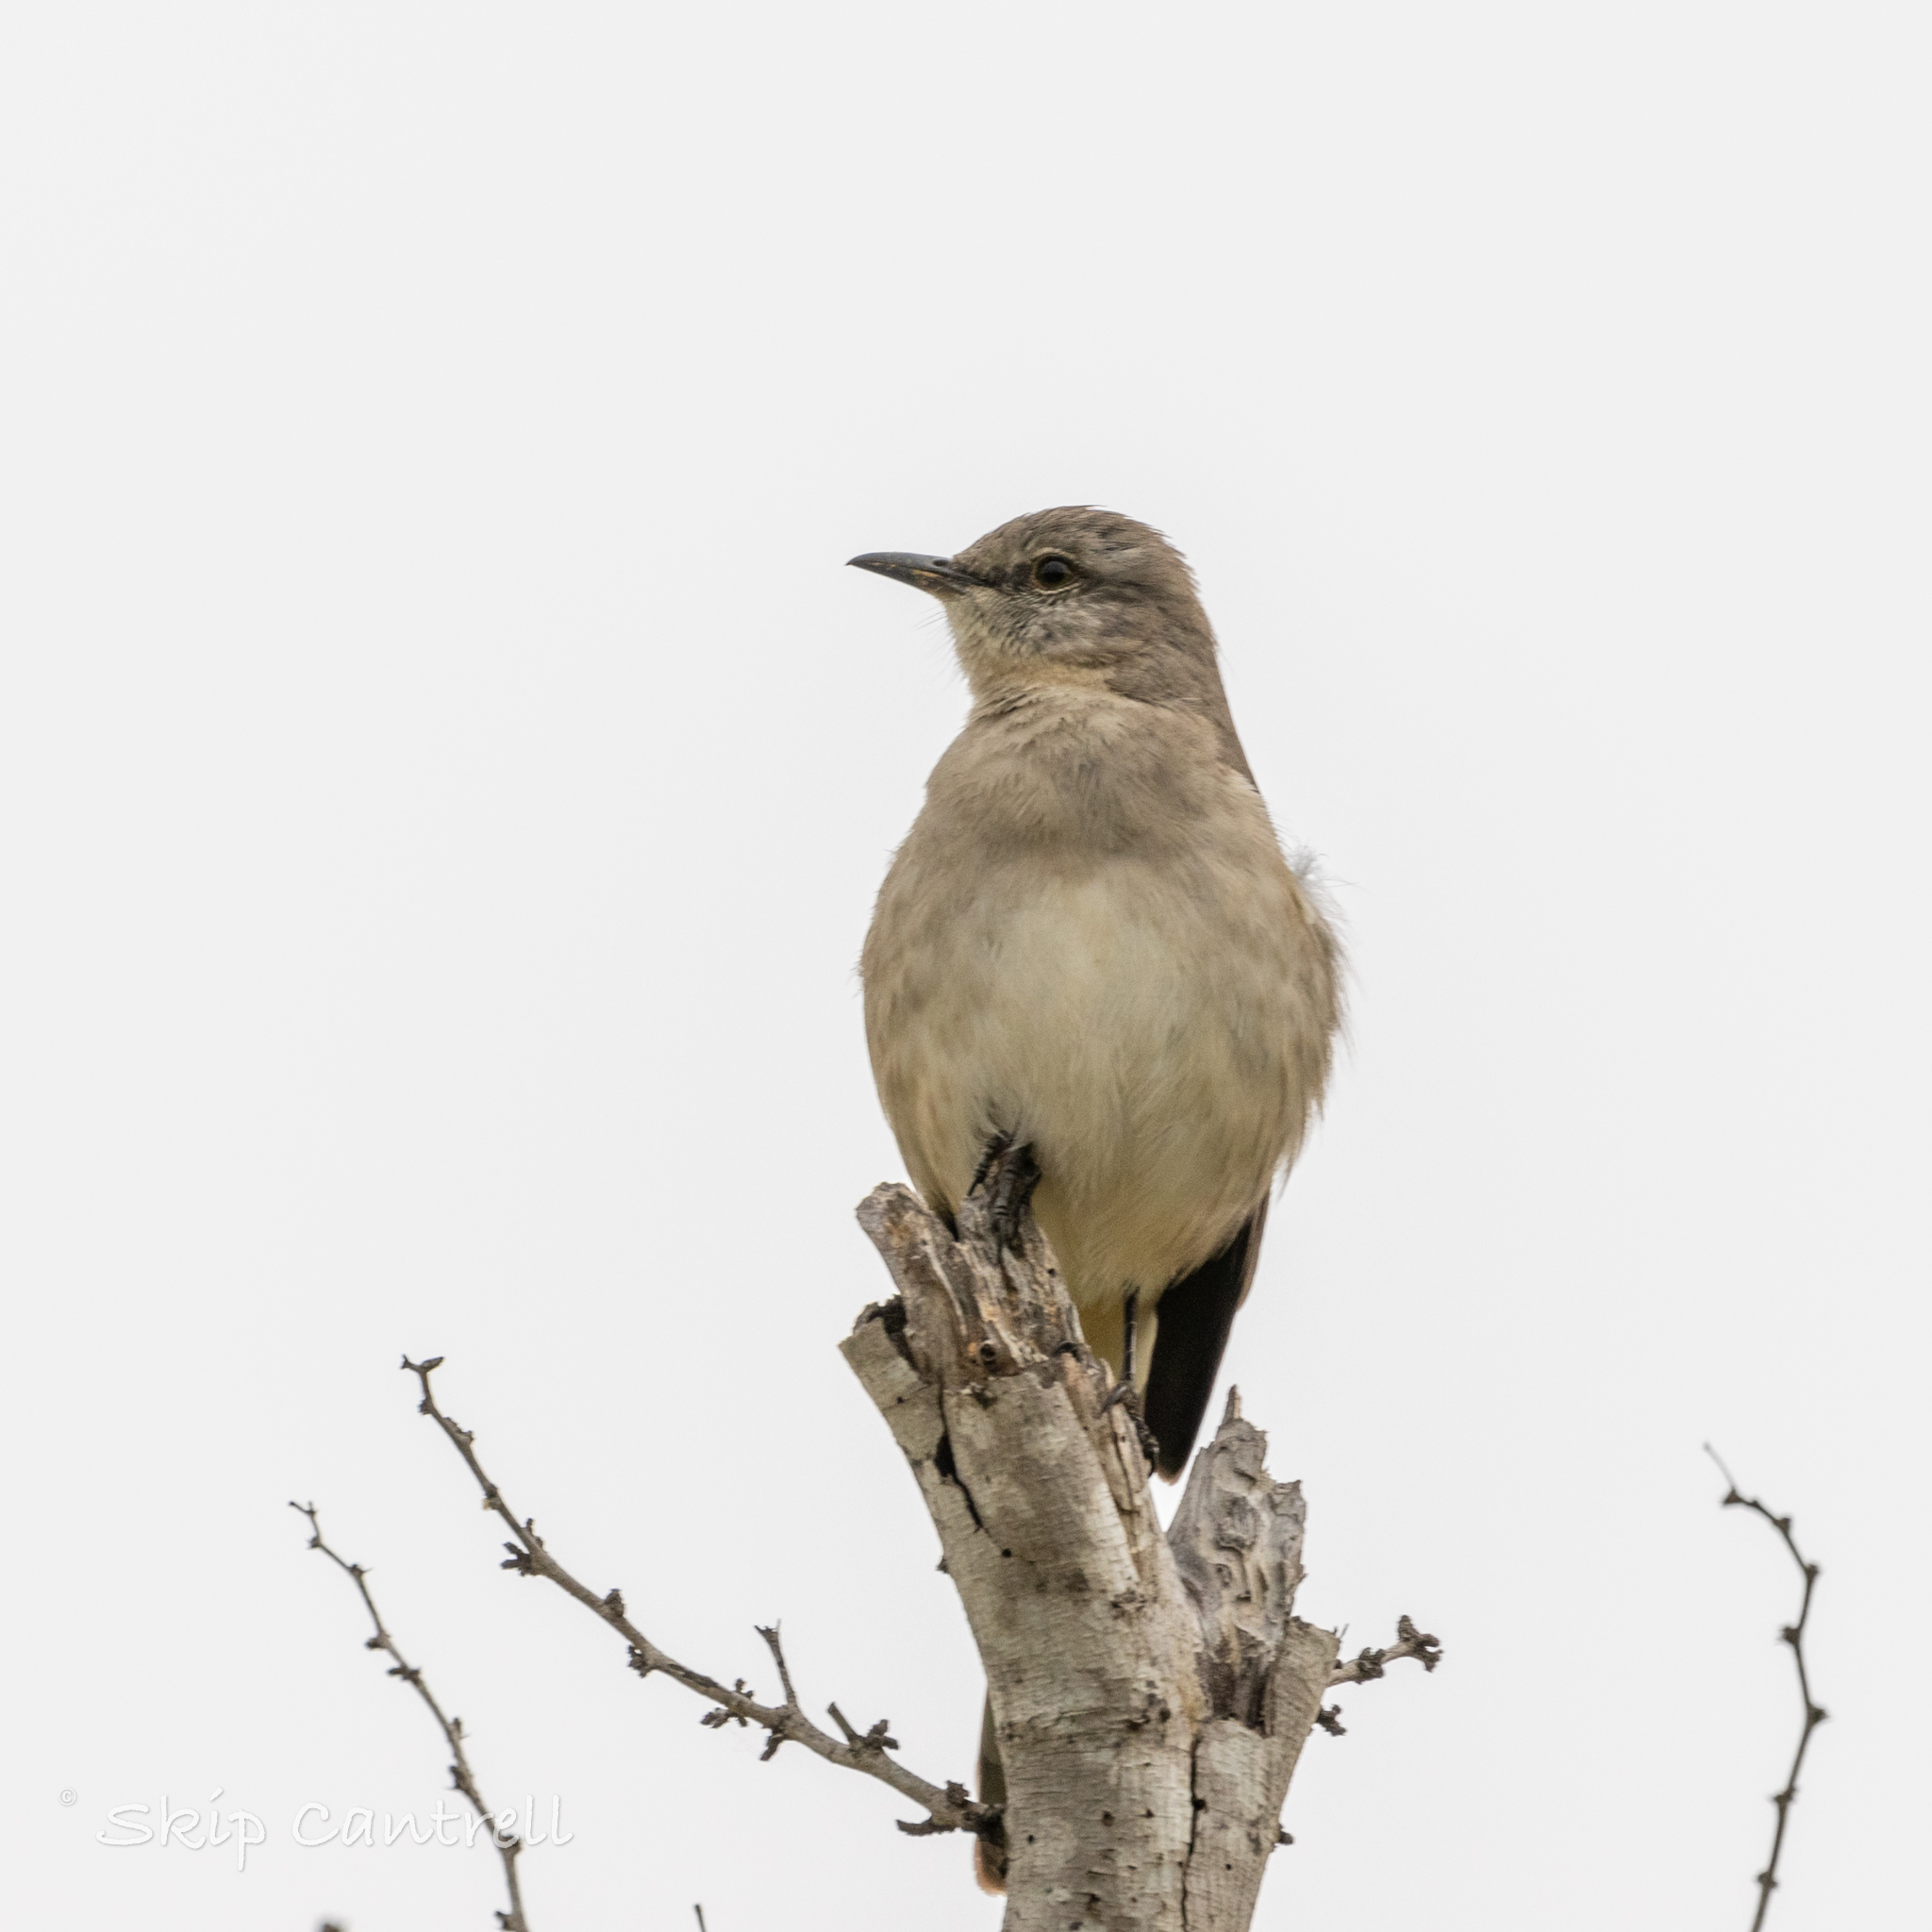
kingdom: Animalia
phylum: Chordata
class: Aves
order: Passeriformes
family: Mimidae
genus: Mimus
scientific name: Mimus polyglottos
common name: Northern mockingbird
